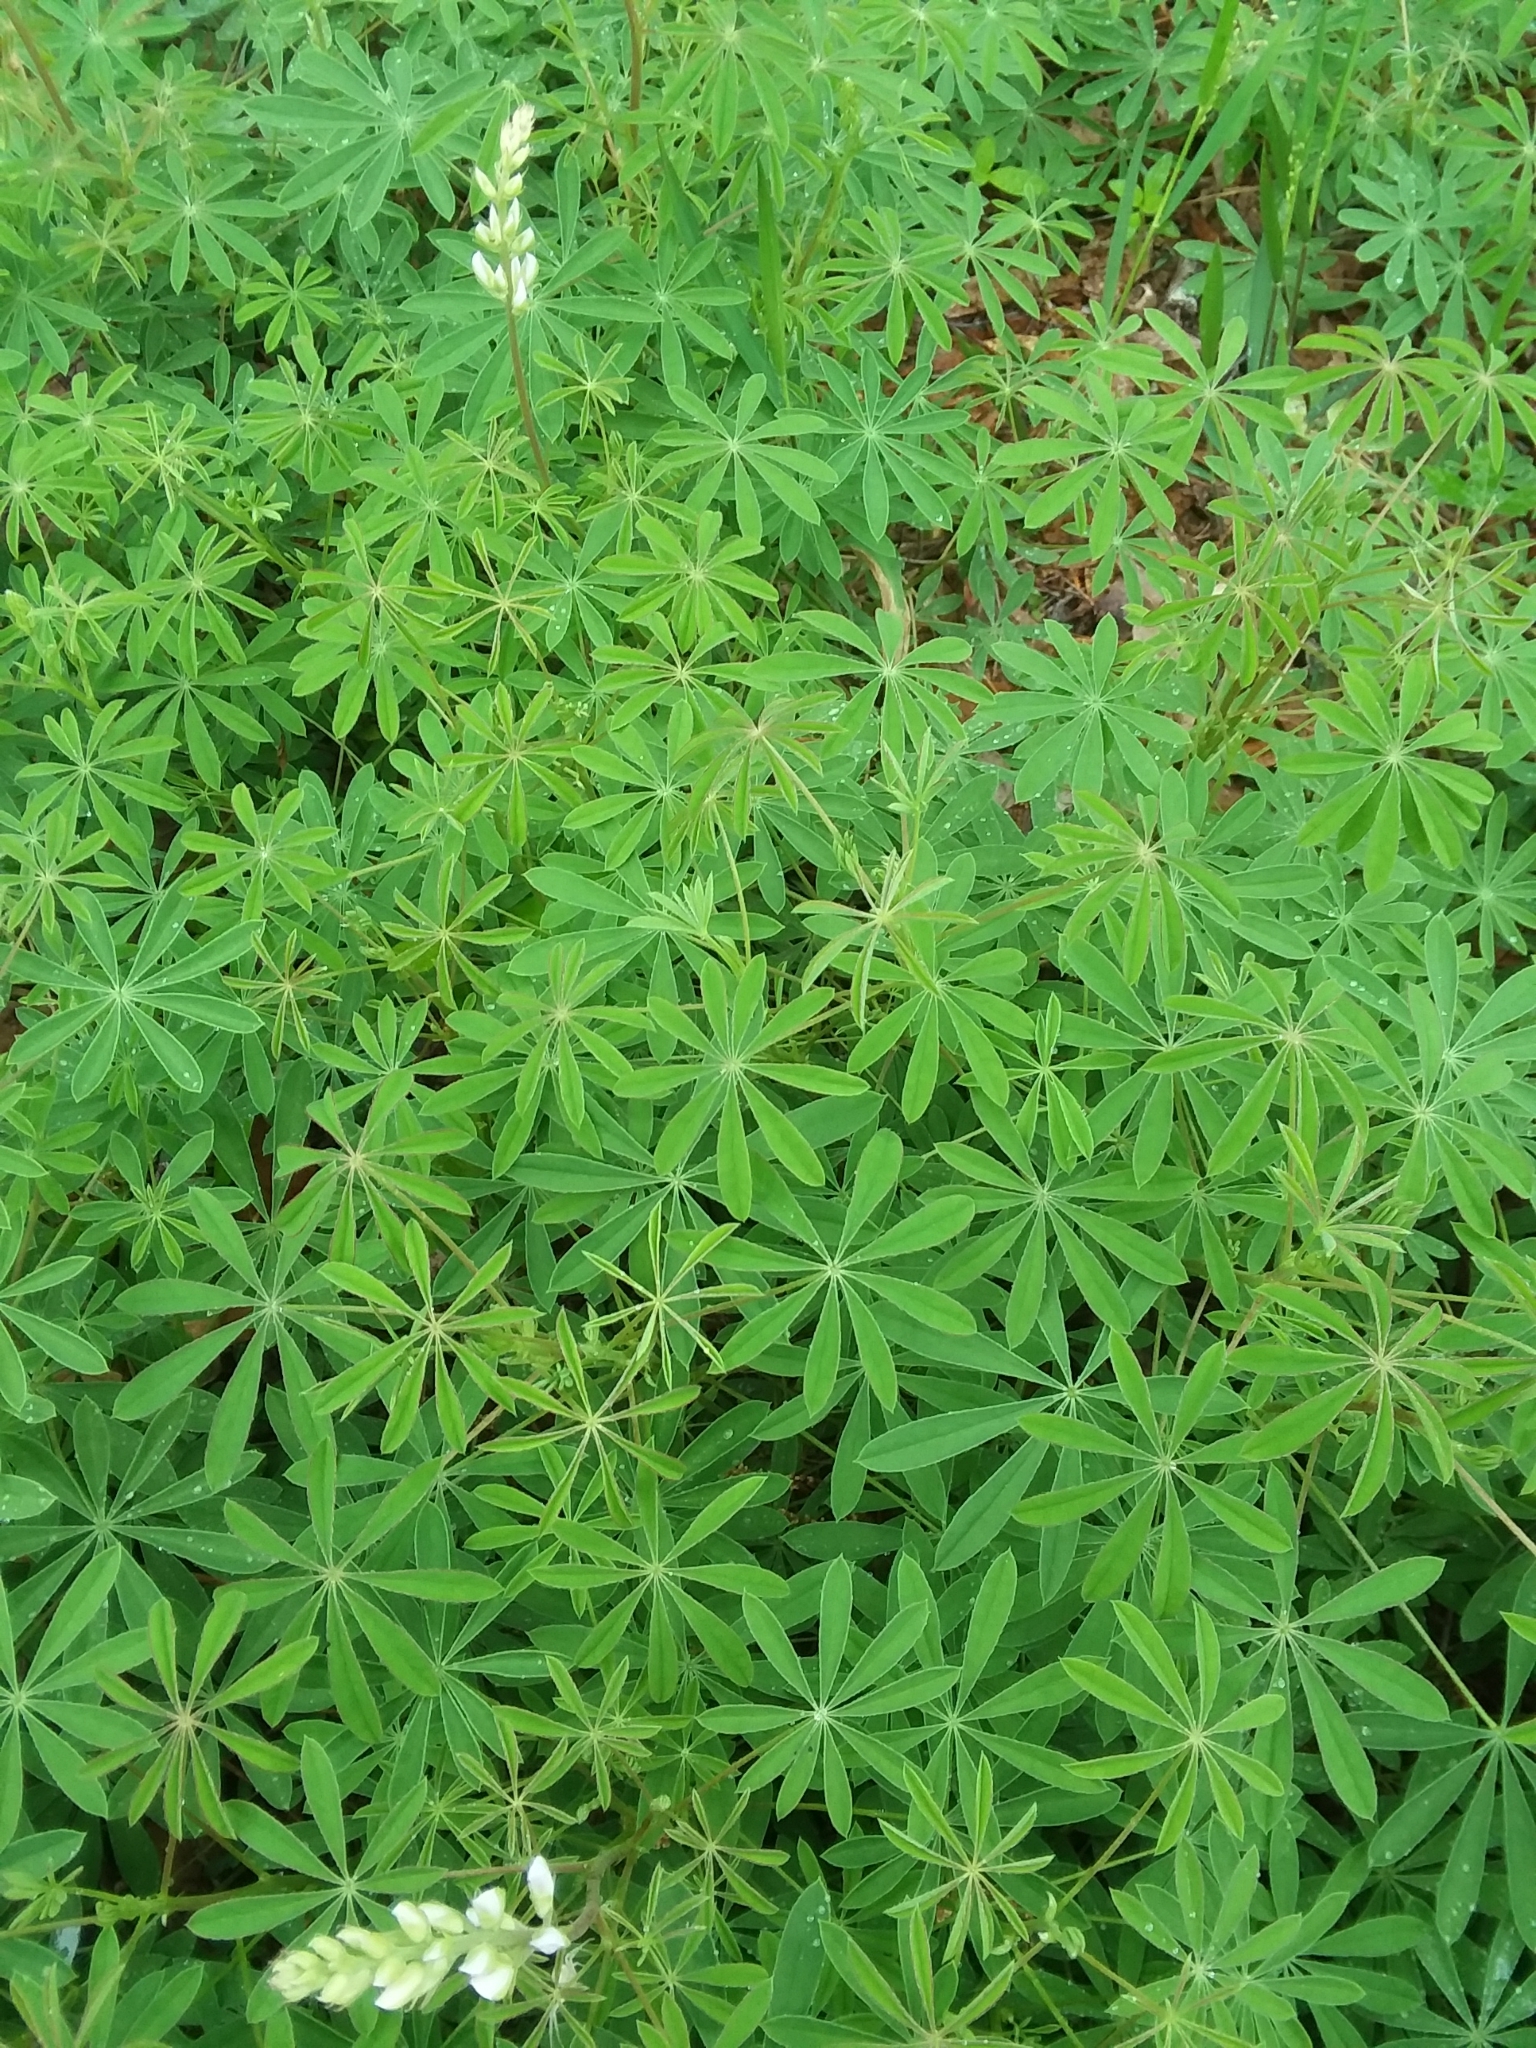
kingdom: Plantae
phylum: Tracheophyta
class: Magnoliopsida
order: Fabales
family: Fabaceae
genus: Lupinus
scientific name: Lupinus perennis
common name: Sundial lupine
